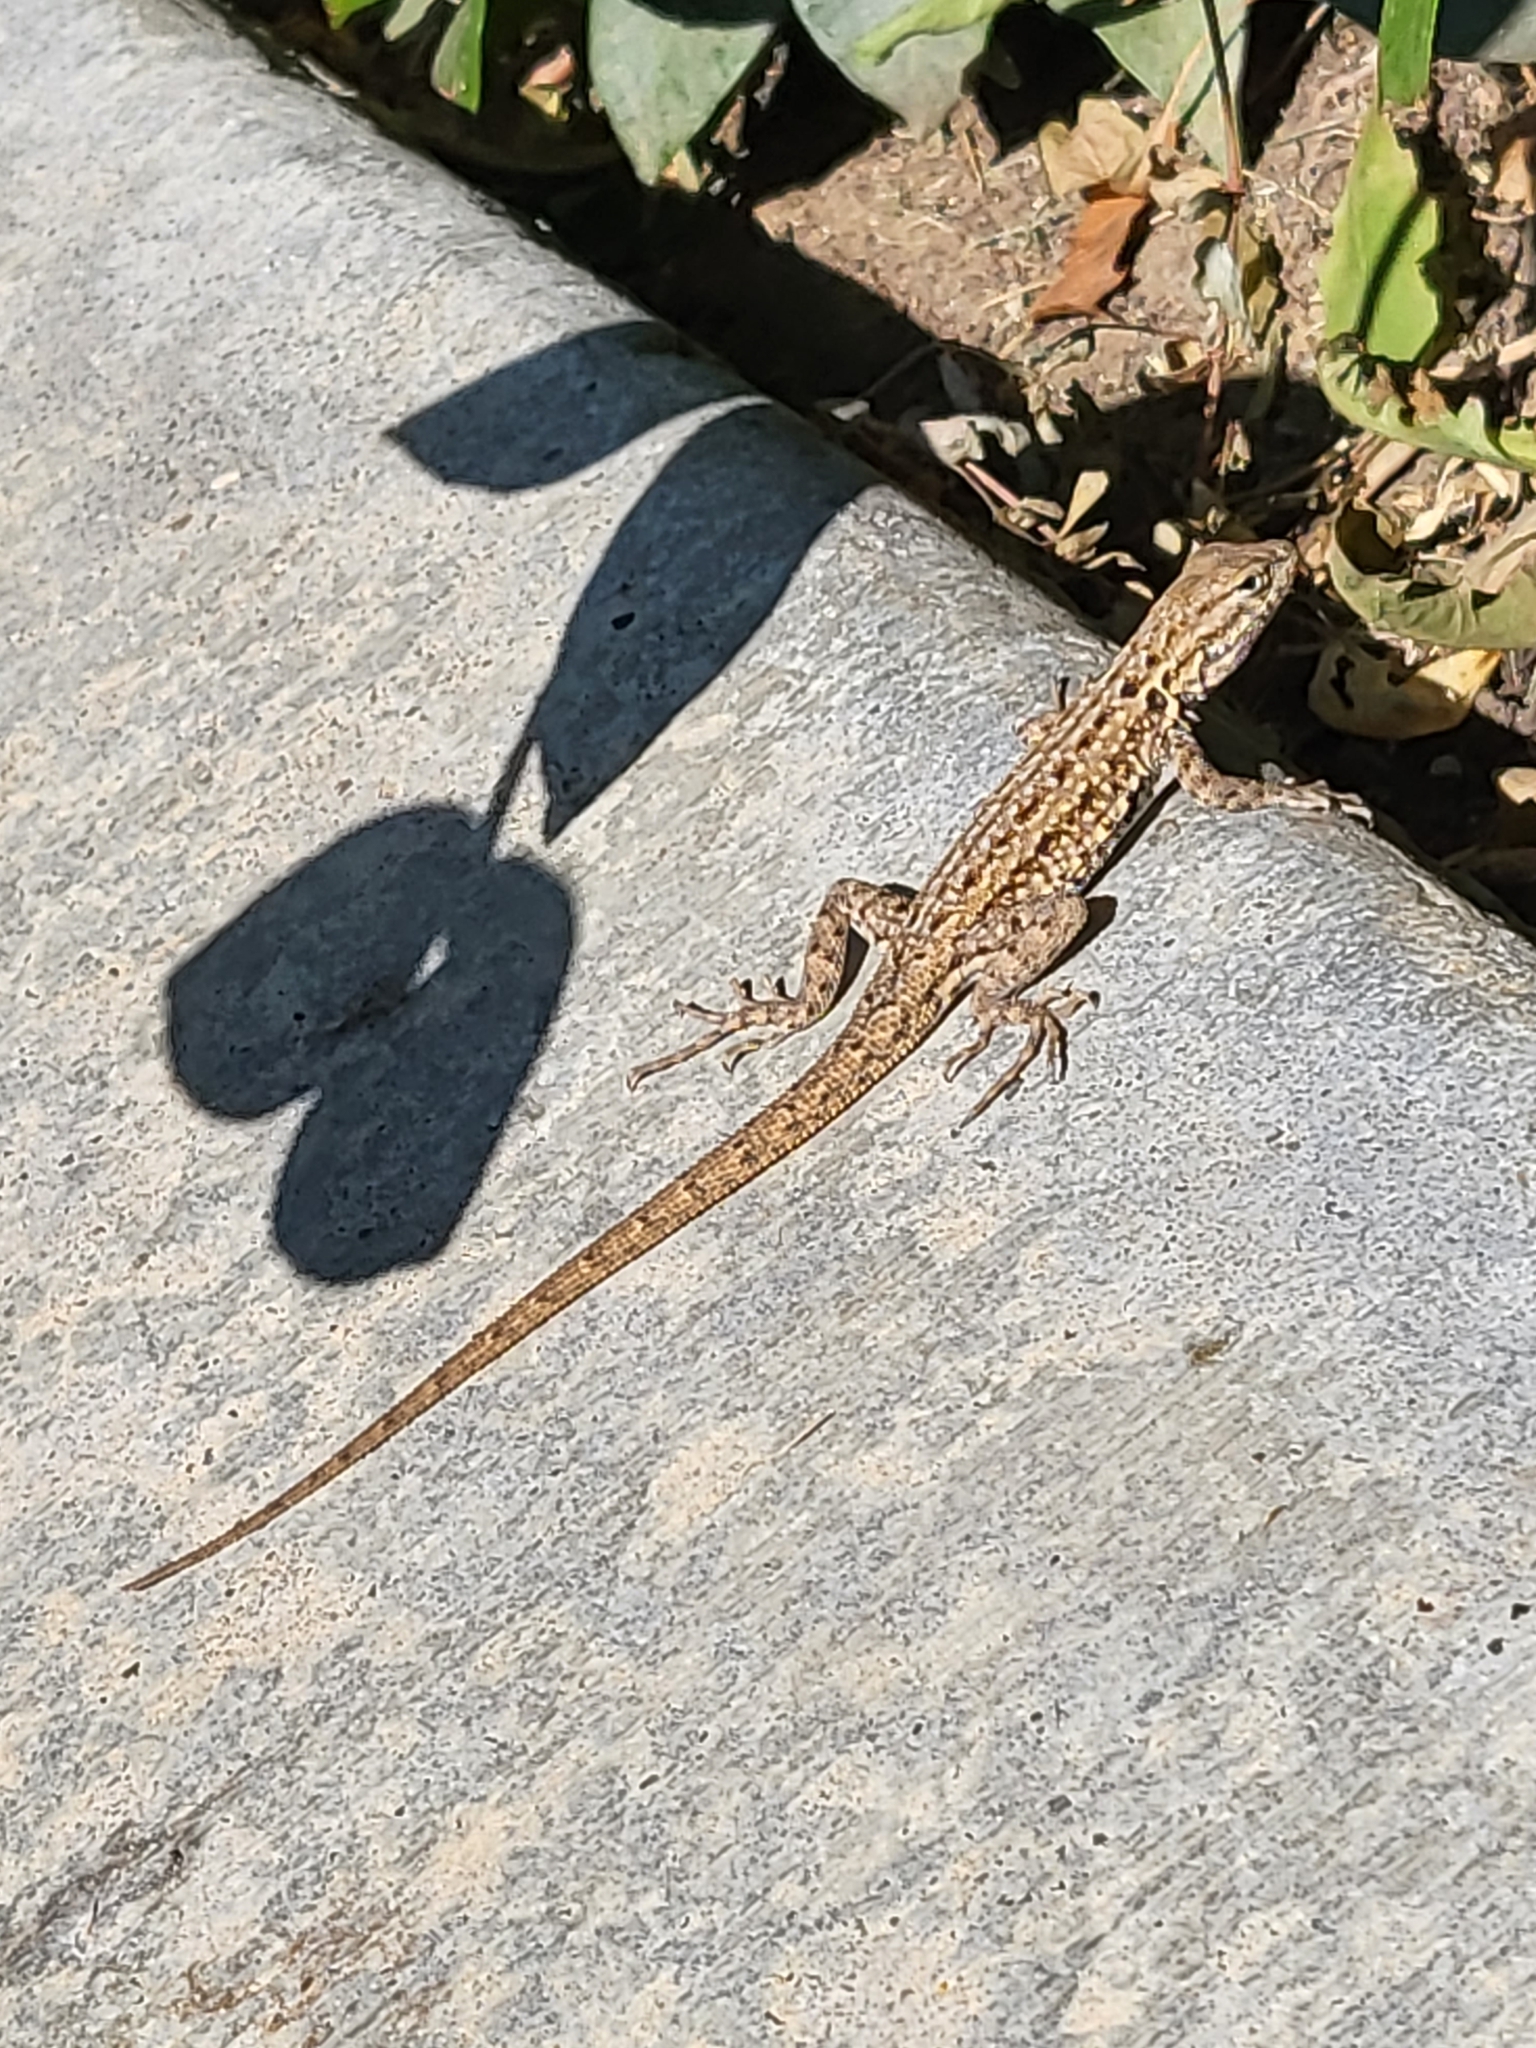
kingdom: Animalia
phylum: Chordata
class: Squamata
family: Phrynosomatidae
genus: Uta
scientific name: Uta stansburiana
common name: Side-blotched lizard
